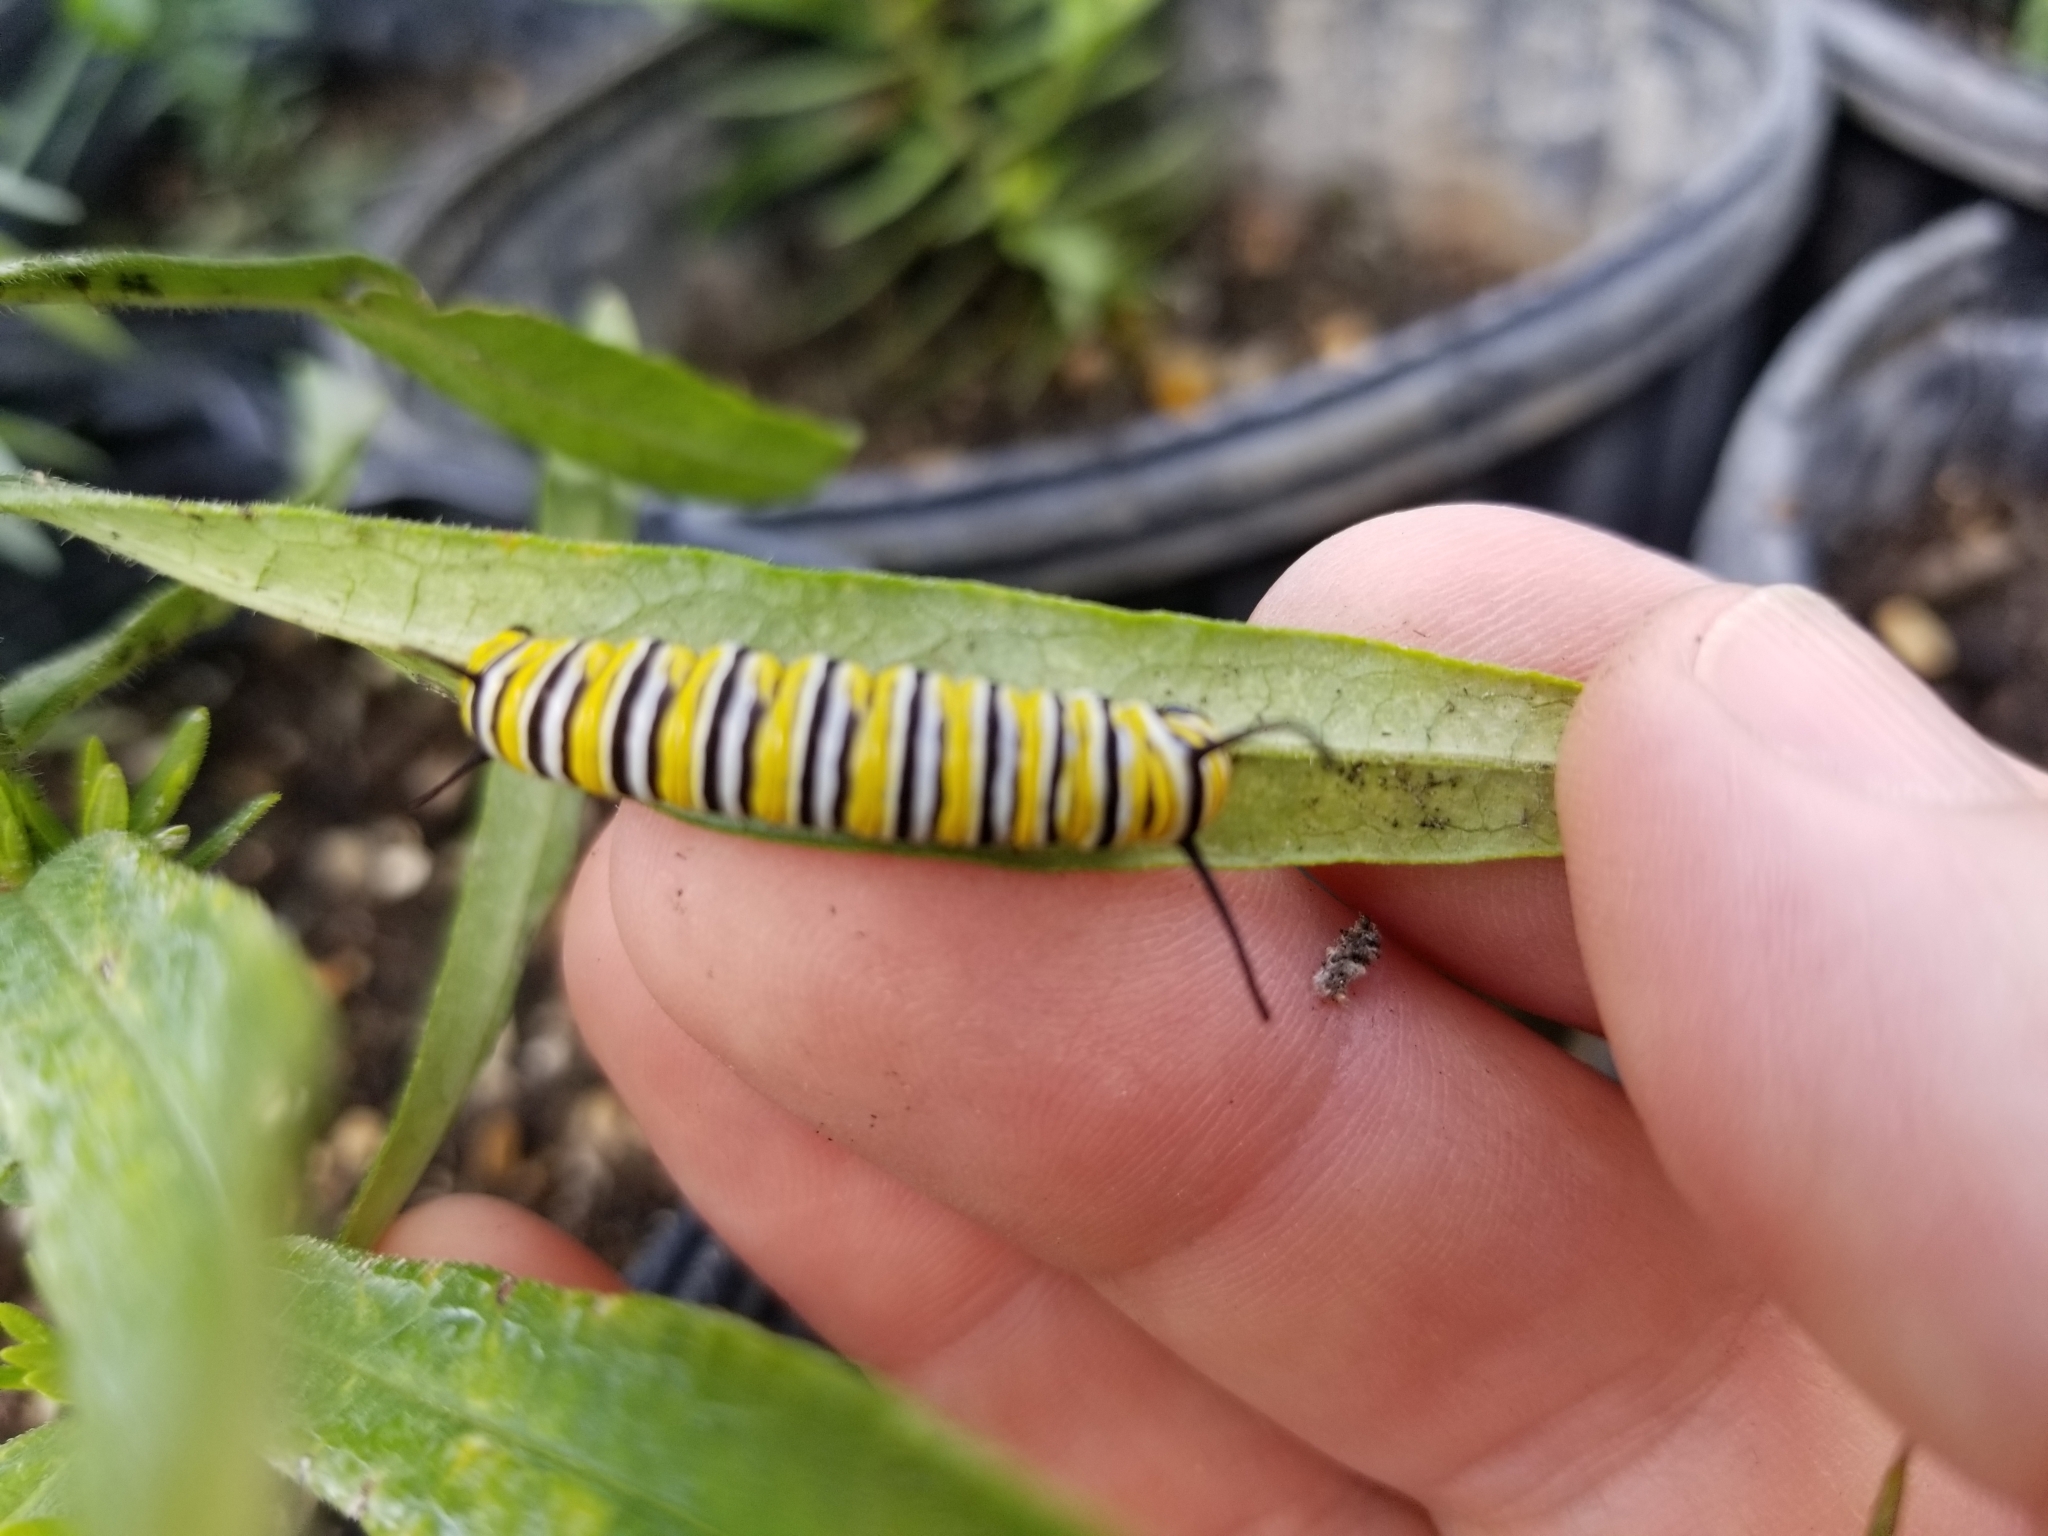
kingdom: Animalia
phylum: Arthropoda
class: Insecta
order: Lepidoptera
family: Nymphalidae
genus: Danaus
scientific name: Danaus plexippus
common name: Monarch
